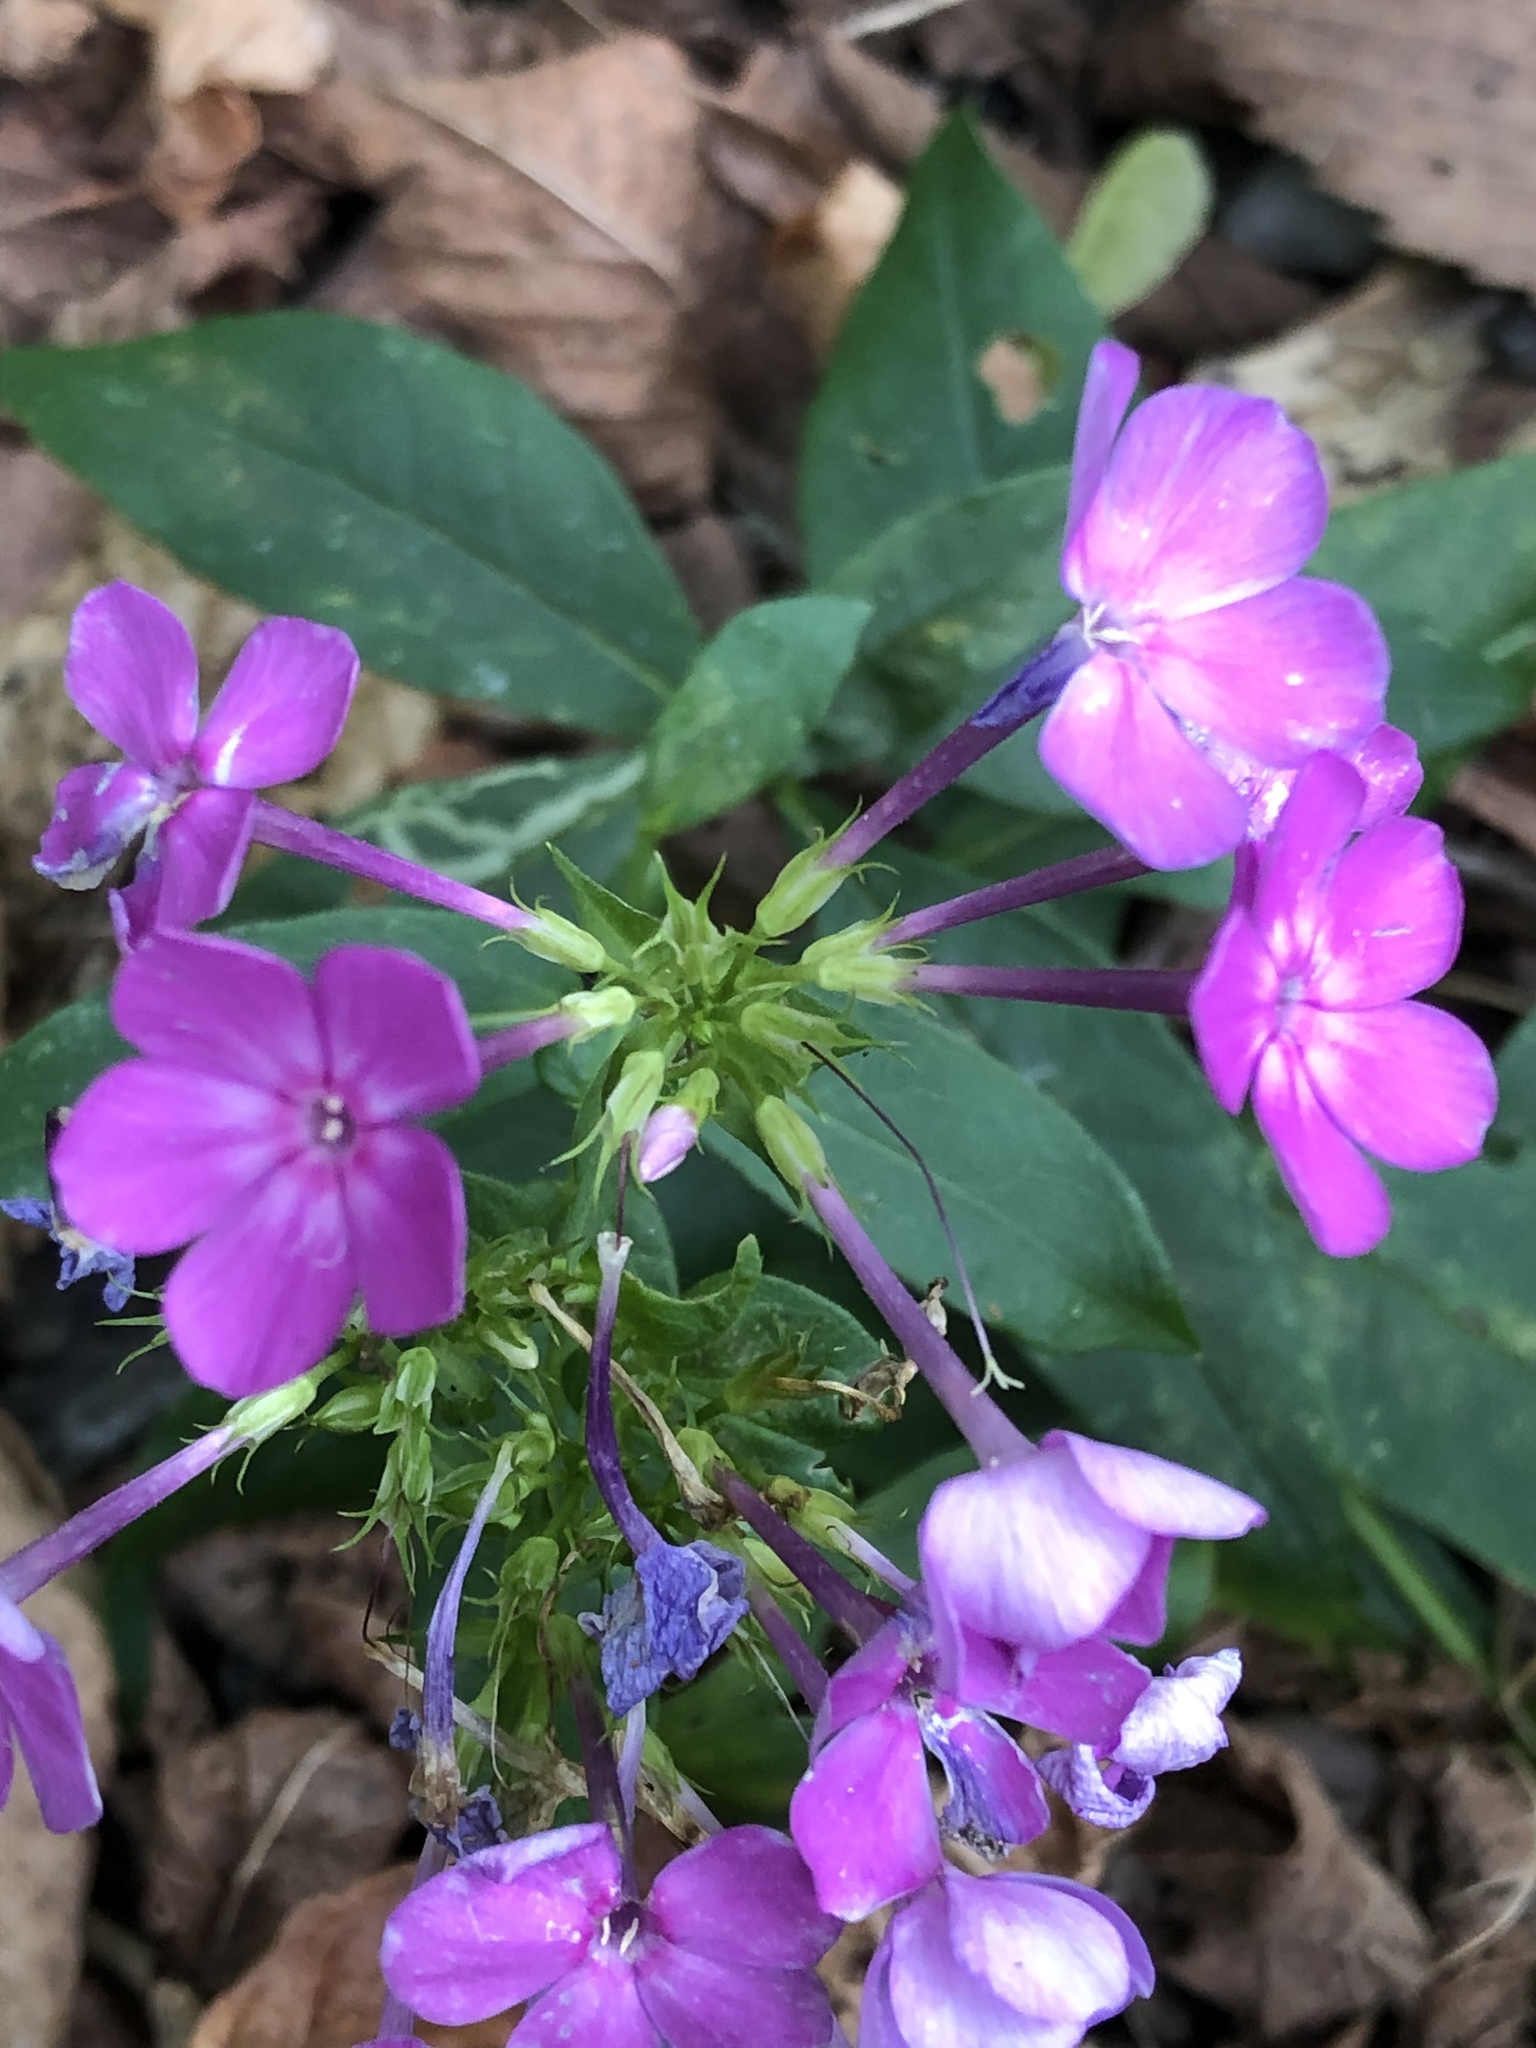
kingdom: Plantae
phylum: Tracheophyta
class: Magnoliopsida
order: Ericales
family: Polemoniaceae
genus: Phlox
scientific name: Phlox paniculata
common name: Fall phlox
